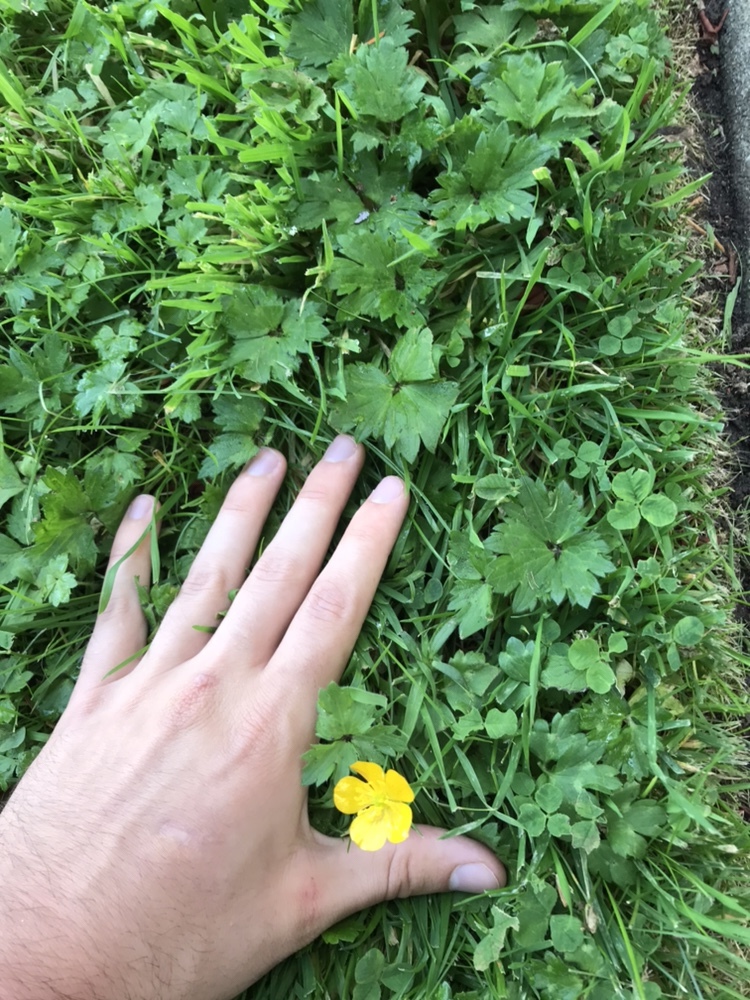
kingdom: Plantae
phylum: Tracheophyta
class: Magnoliopsida
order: Ranunculales
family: Ranunculaceae
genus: Ranunculus
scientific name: Ranunculus repens
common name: Creeping buttercup
